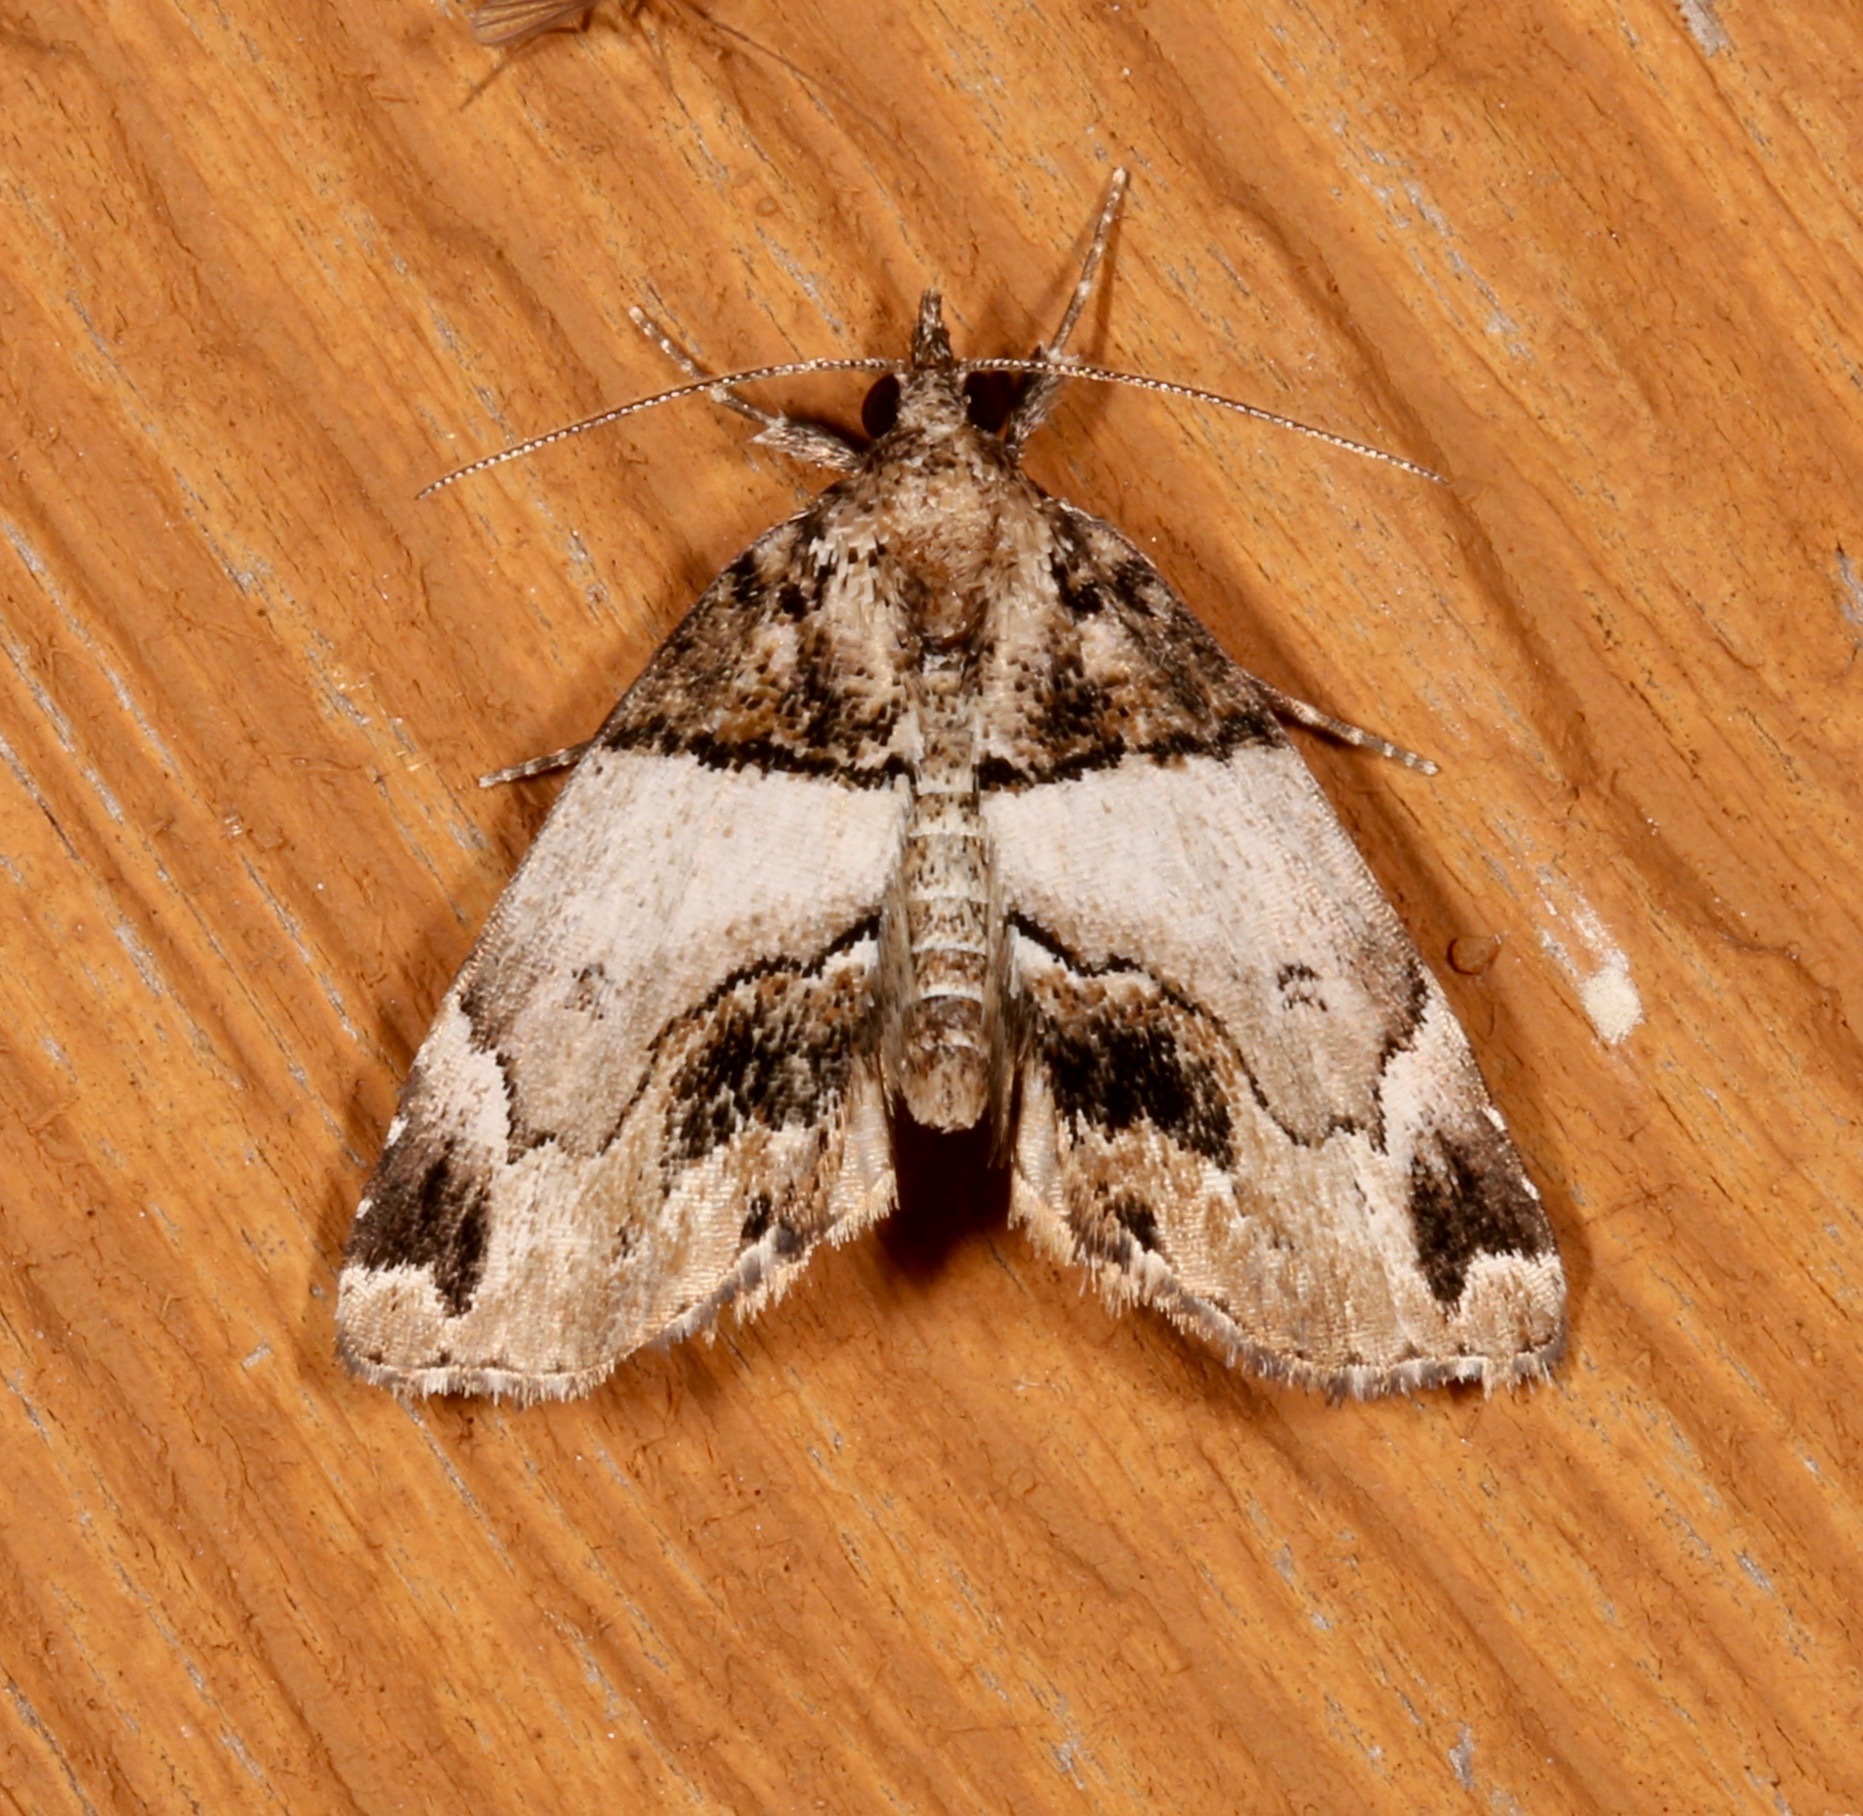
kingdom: Animalia
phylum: Arthropoda
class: Insecta
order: Lepidoptera
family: Erebidae
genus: Cutina
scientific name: Cutina distincta
